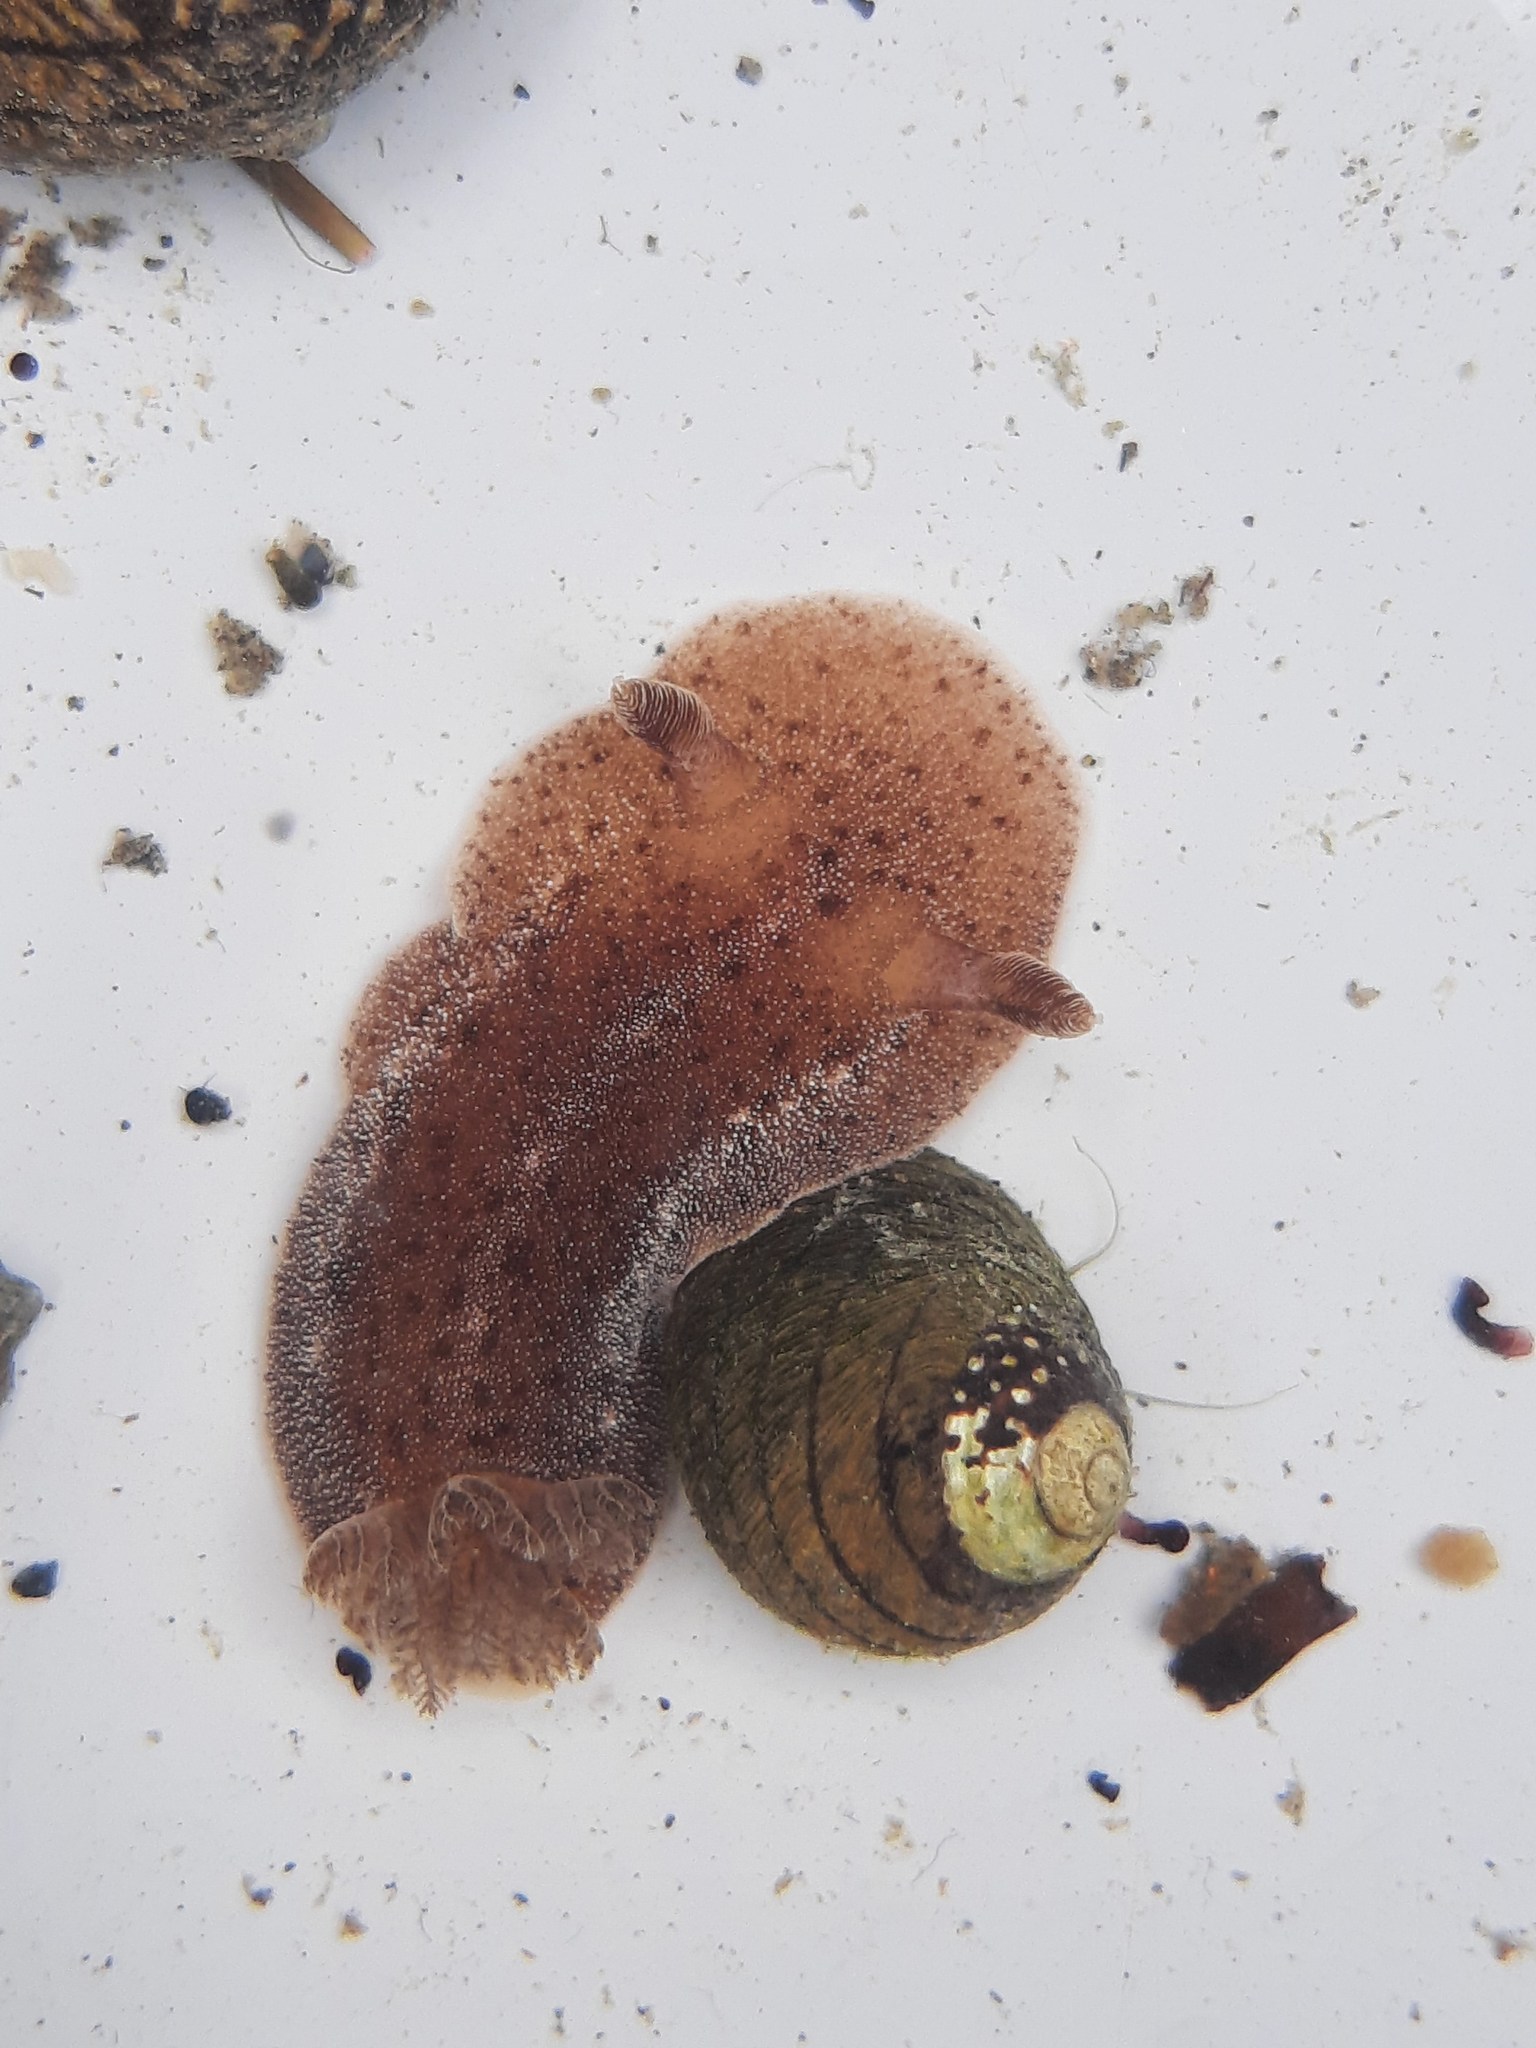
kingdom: Animalia
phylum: Mollusca
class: Gastropoda
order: Nudibranchia
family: Discodorididae
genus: Alloiodoris
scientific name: Alloiodoris lanuginata
